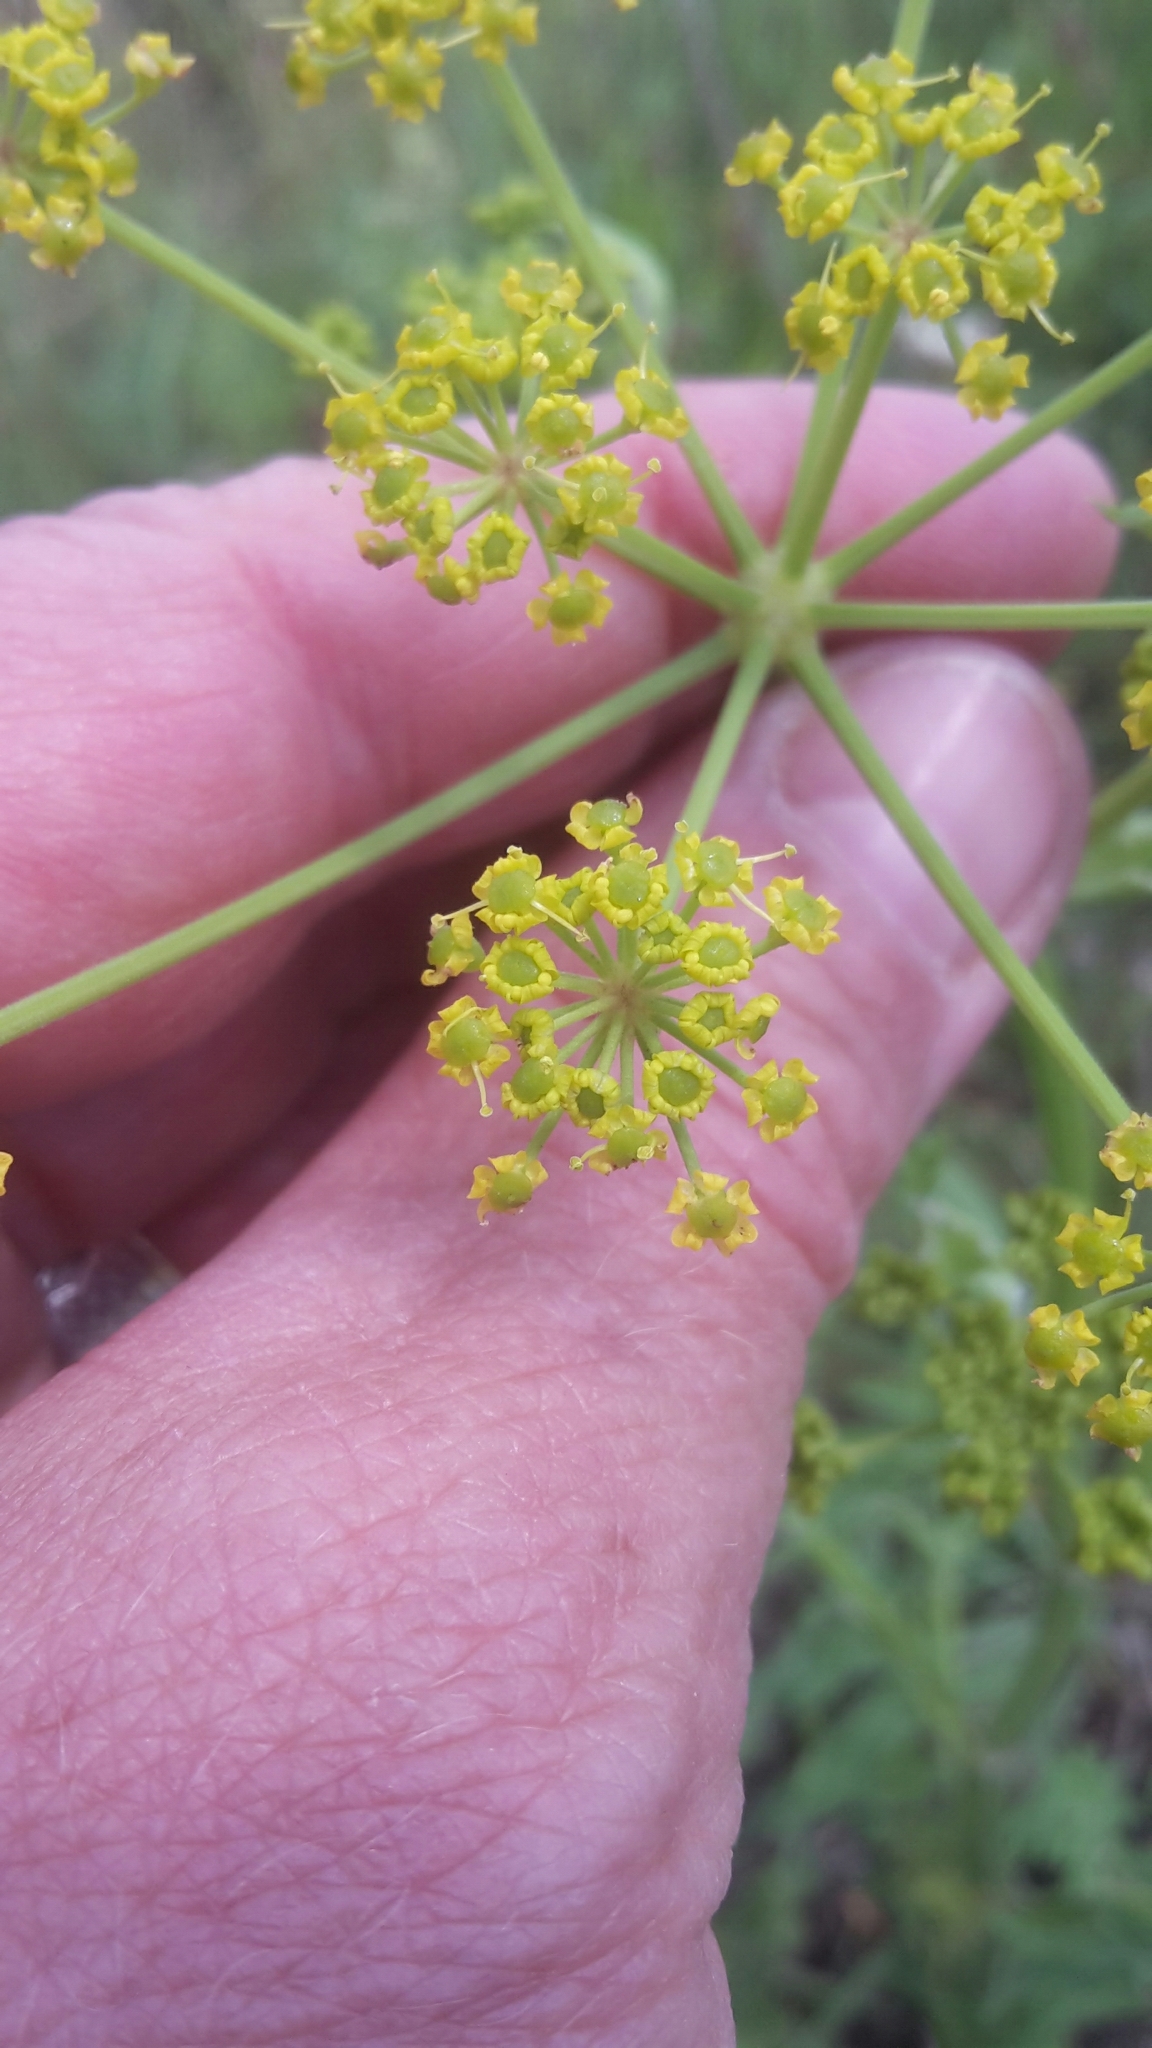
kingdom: Plantae
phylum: Tracheophyta
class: Magnoliopsida
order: Apiales
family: Apiaceae
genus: Pastinaca
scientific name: Pastinaca sativa
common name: Wild parsnip
